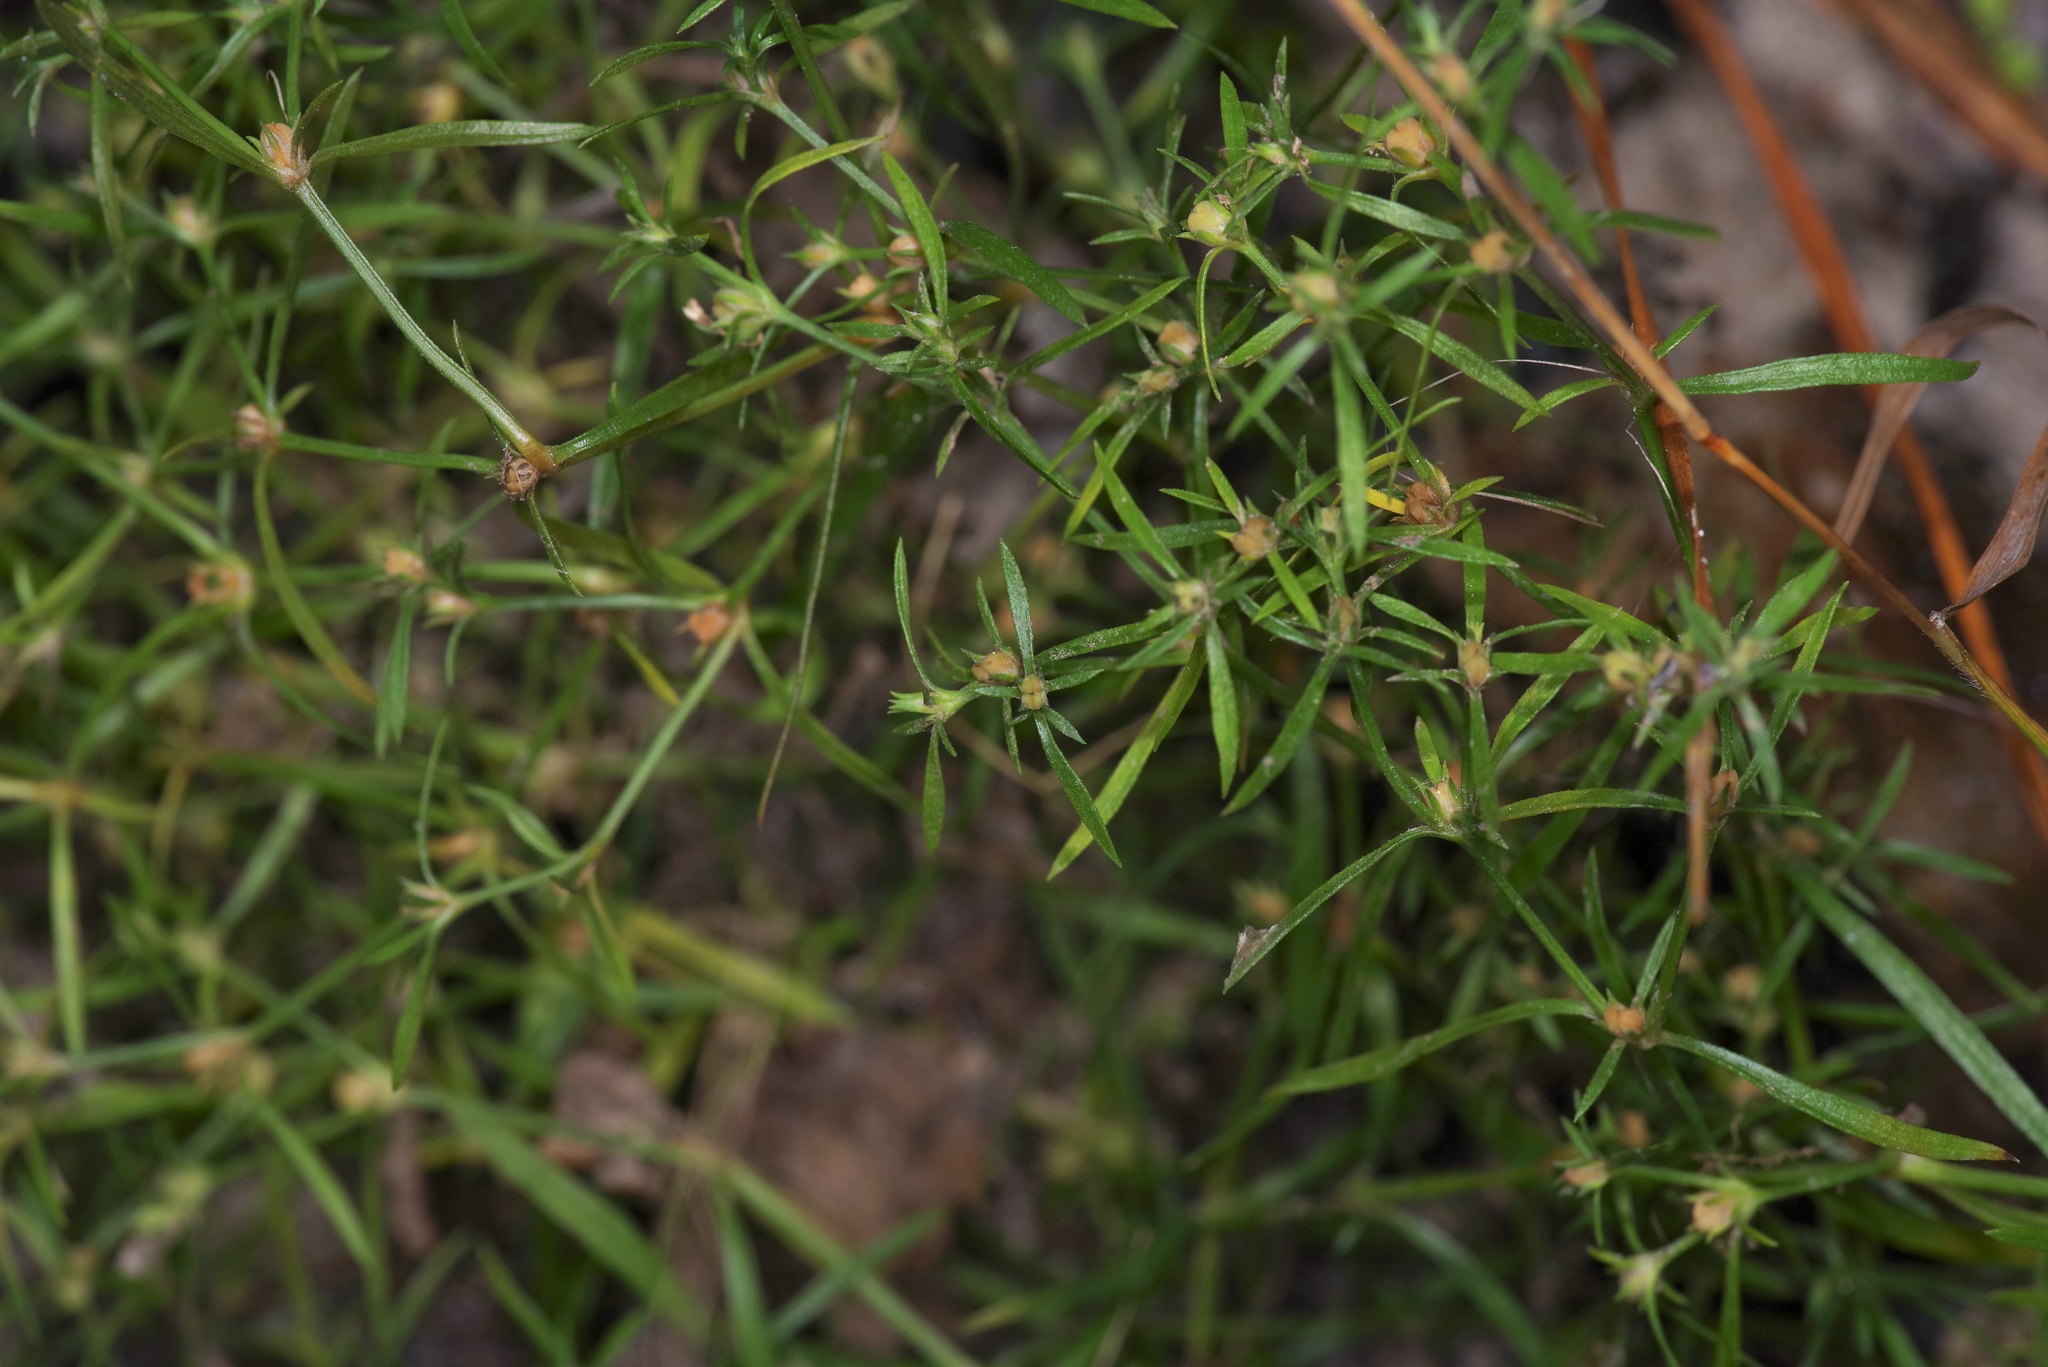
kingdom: Plantae
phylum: Tracheophyta
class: Magnoliopsida
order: Lamiales
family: Tetrachondraceae
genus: Polypremum
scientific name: Polypremum procumbens
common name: Juniper-leaf
